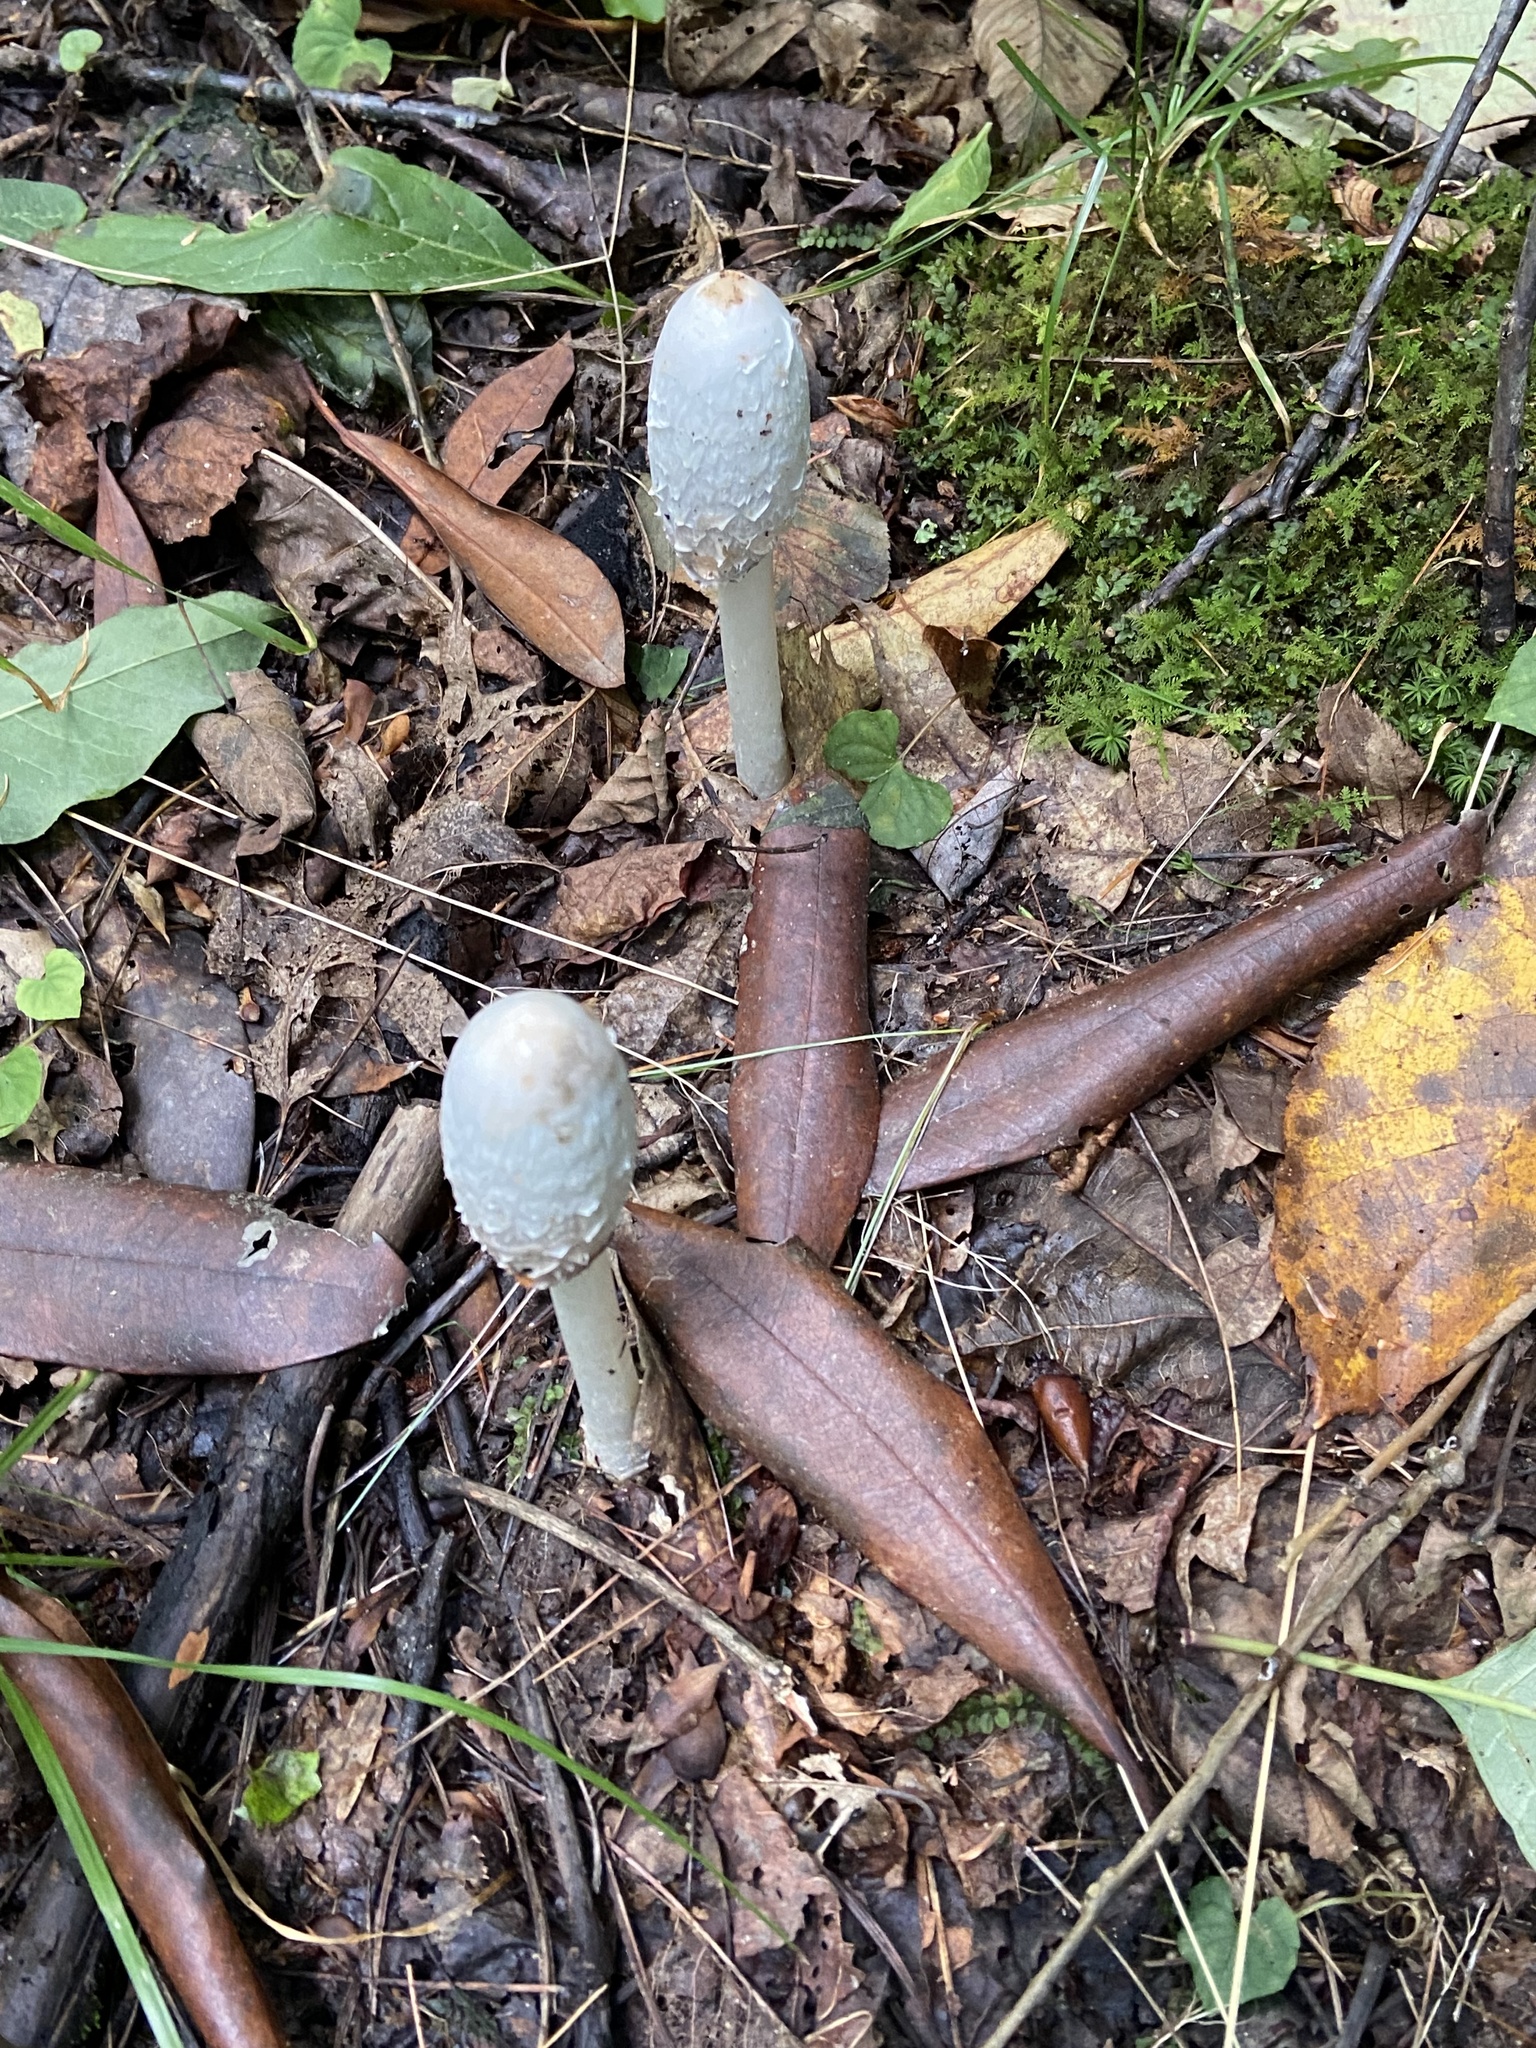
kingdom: Fungi
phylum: Basidiomycota
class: Agaricomycetes
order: Agaricales
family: Agaricaceae
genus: Coprinus
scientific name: Coprinus comatus
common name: Lawyer's wig
